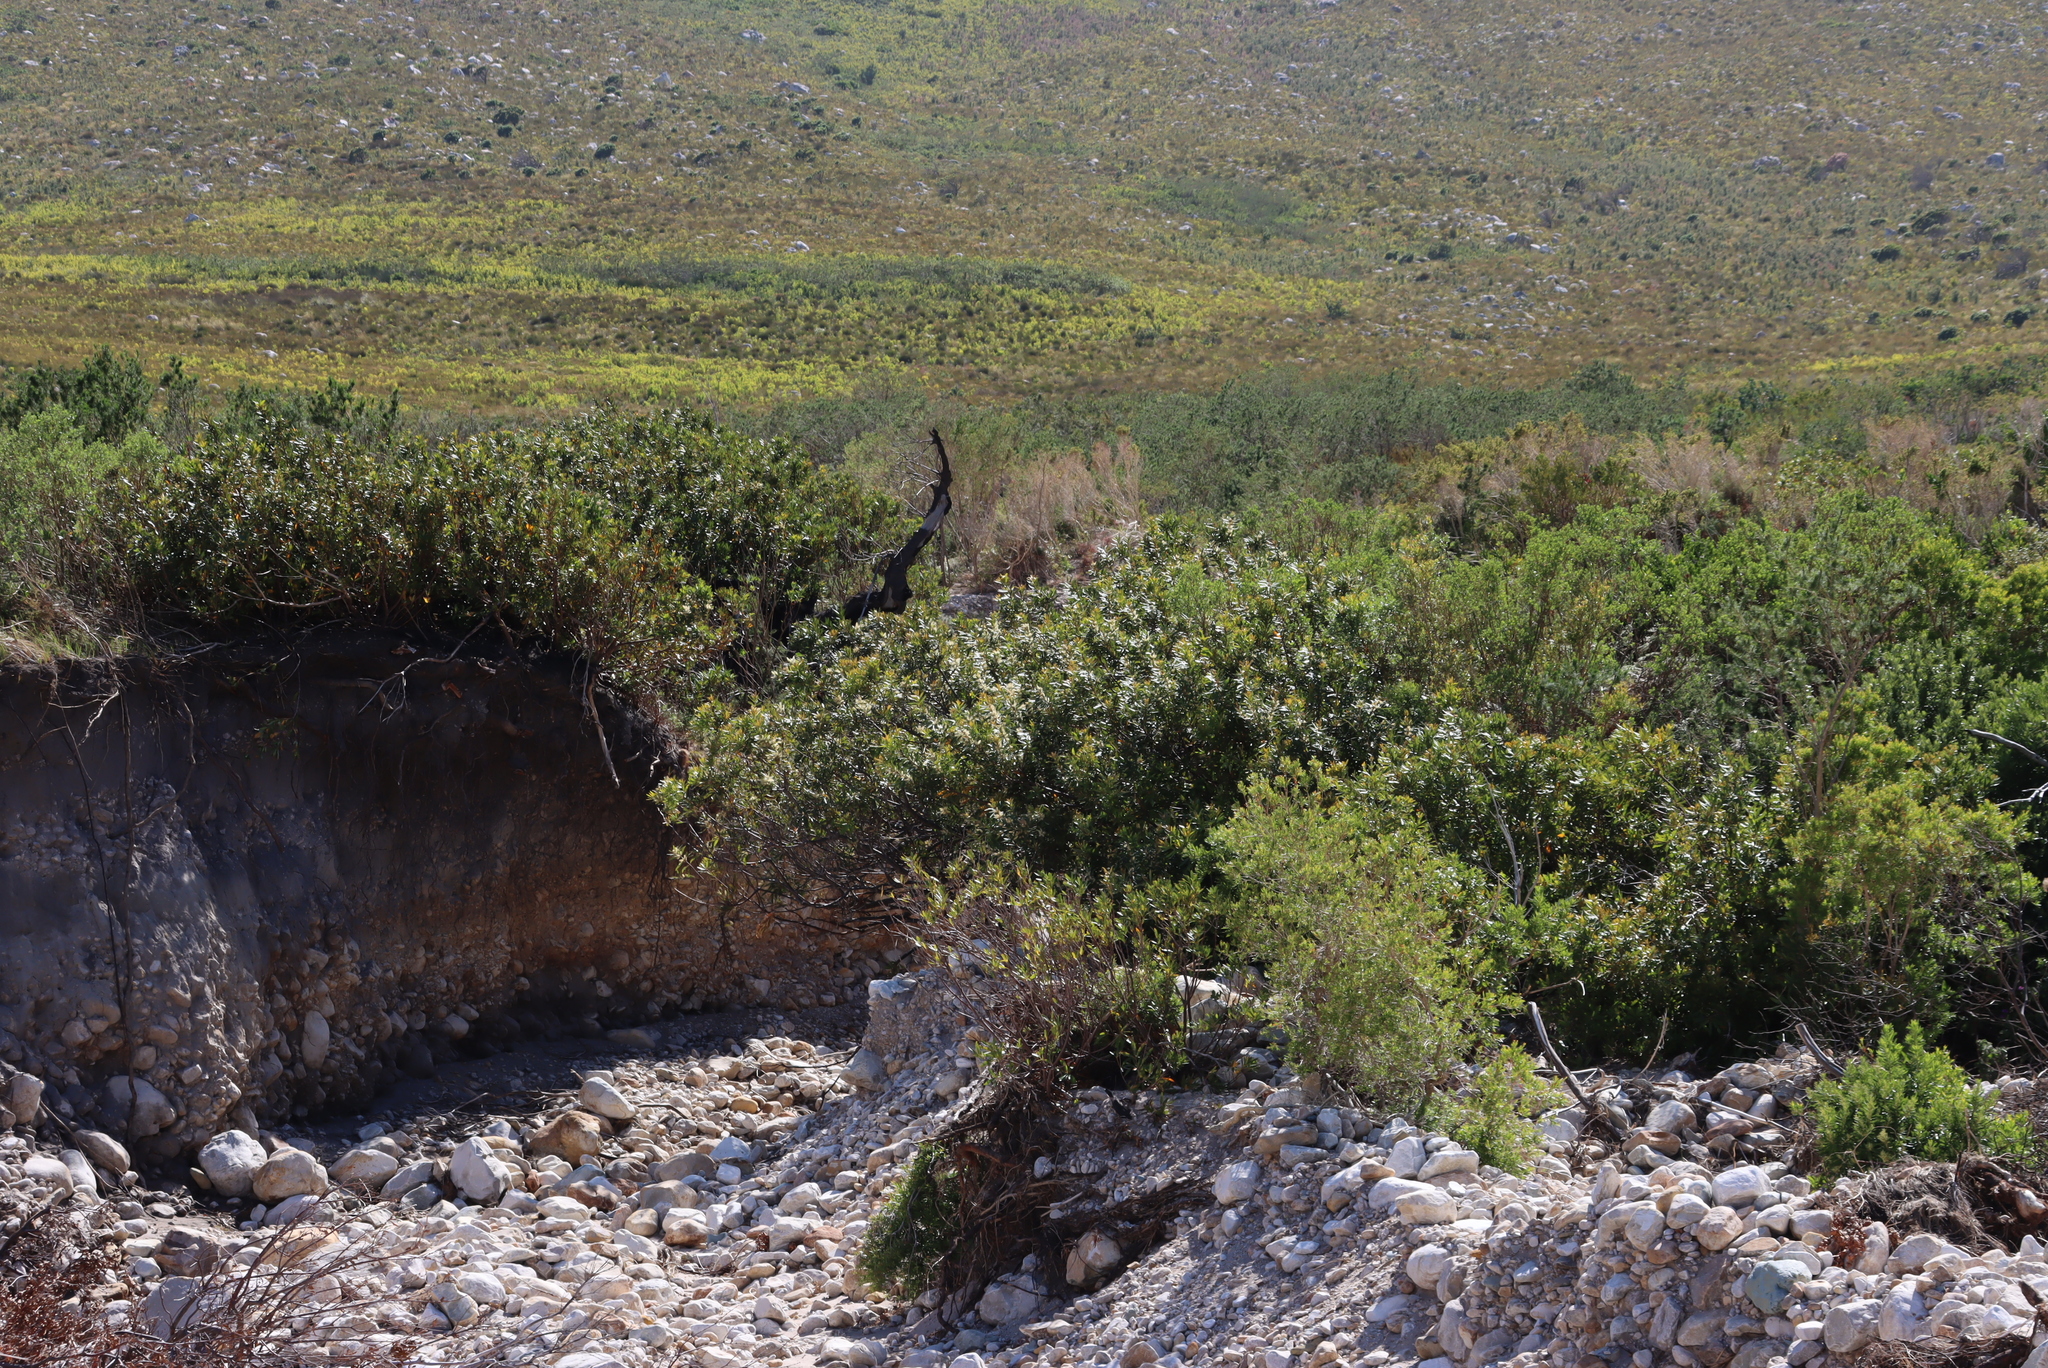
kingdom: Plantae
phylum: Tracheophyta
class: Magnoliopsida
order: Proteales
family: Proteaceae
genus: Brabejum
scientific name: Brabejum stellatifolium
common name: Wild almond
